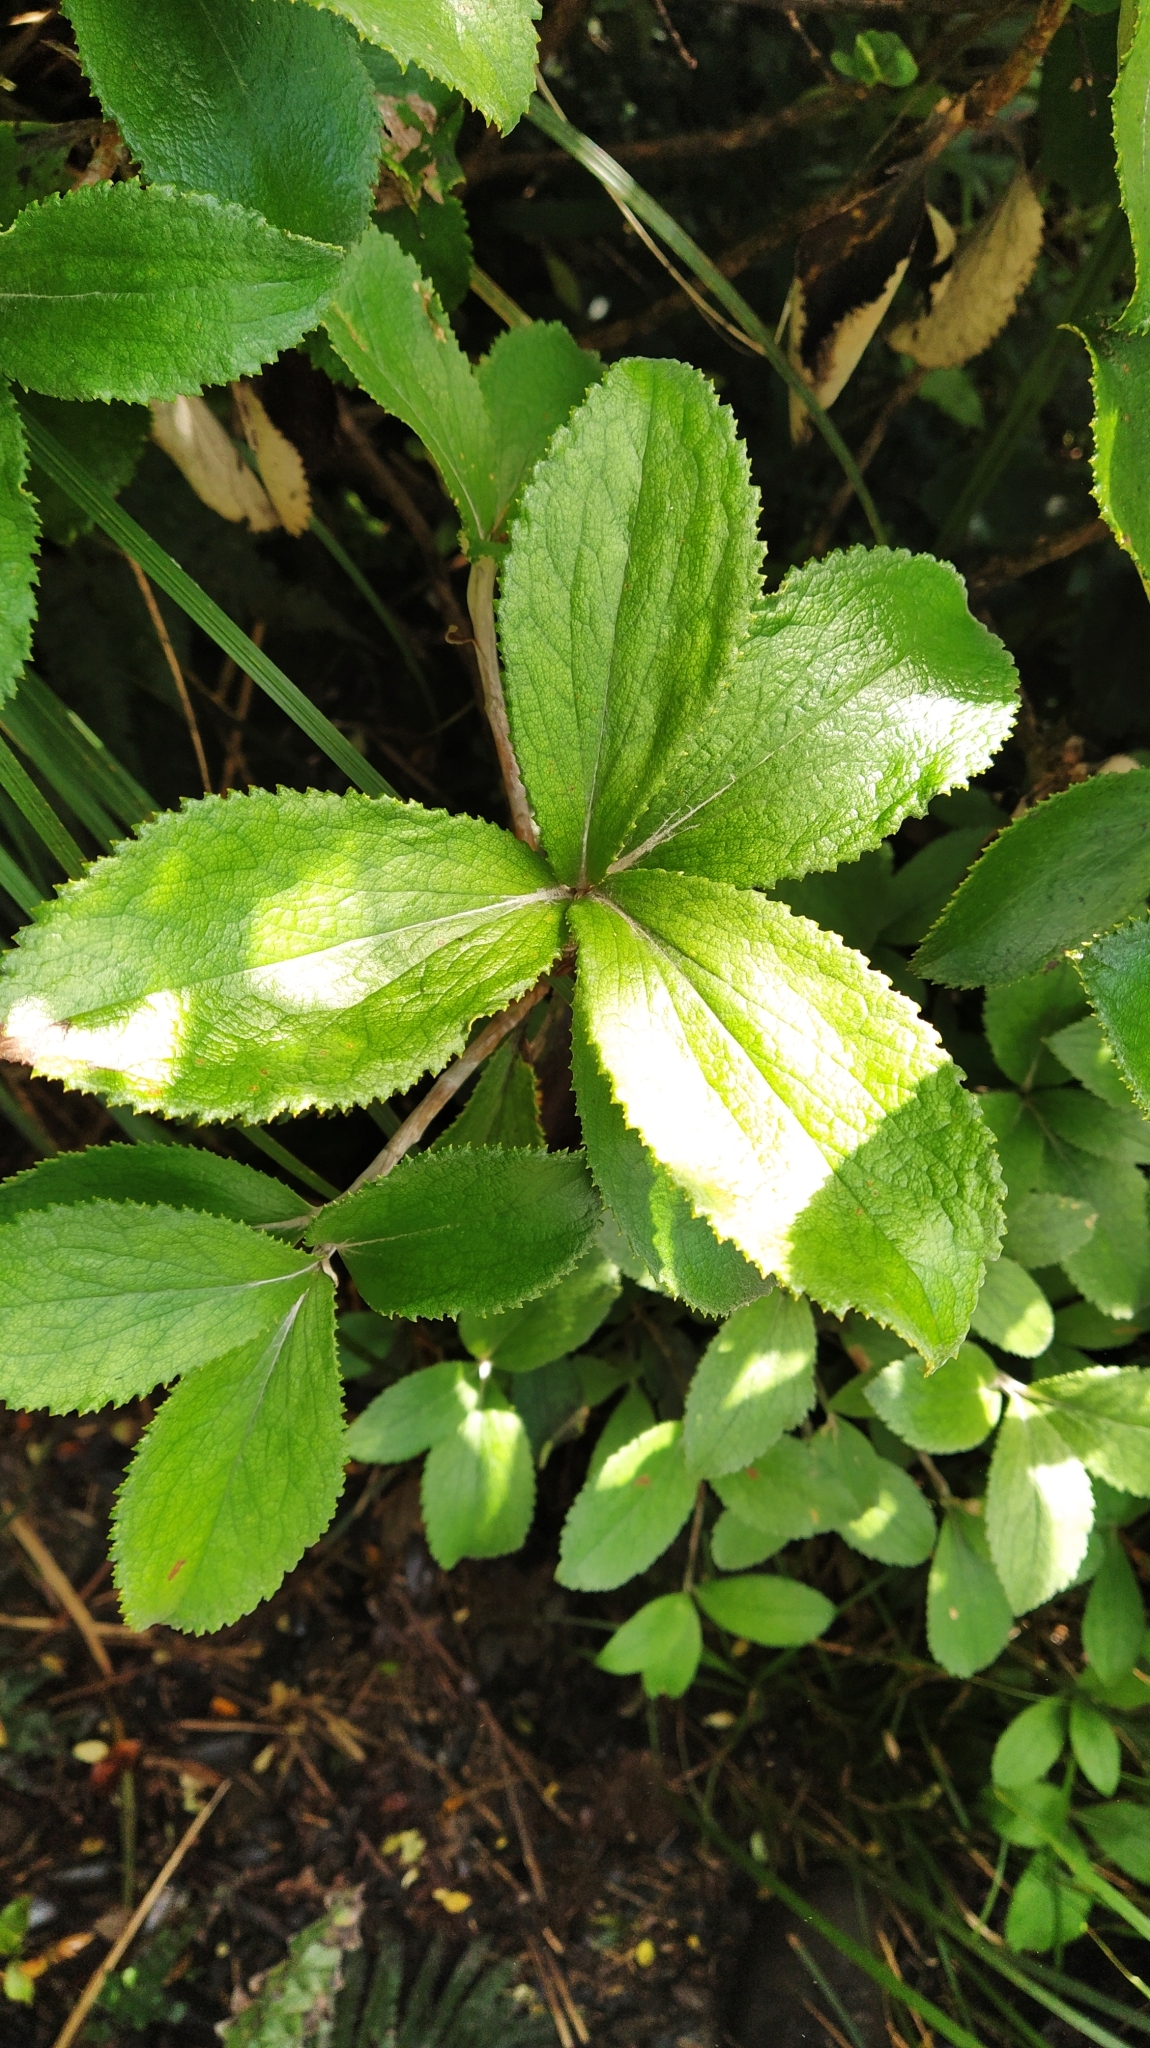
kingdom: Plantae
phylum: Tracheophyta
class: Magnoliopsida
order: Asterales
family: Asteraceae
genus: Macrolearia
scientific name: Macrolearia colensoi
